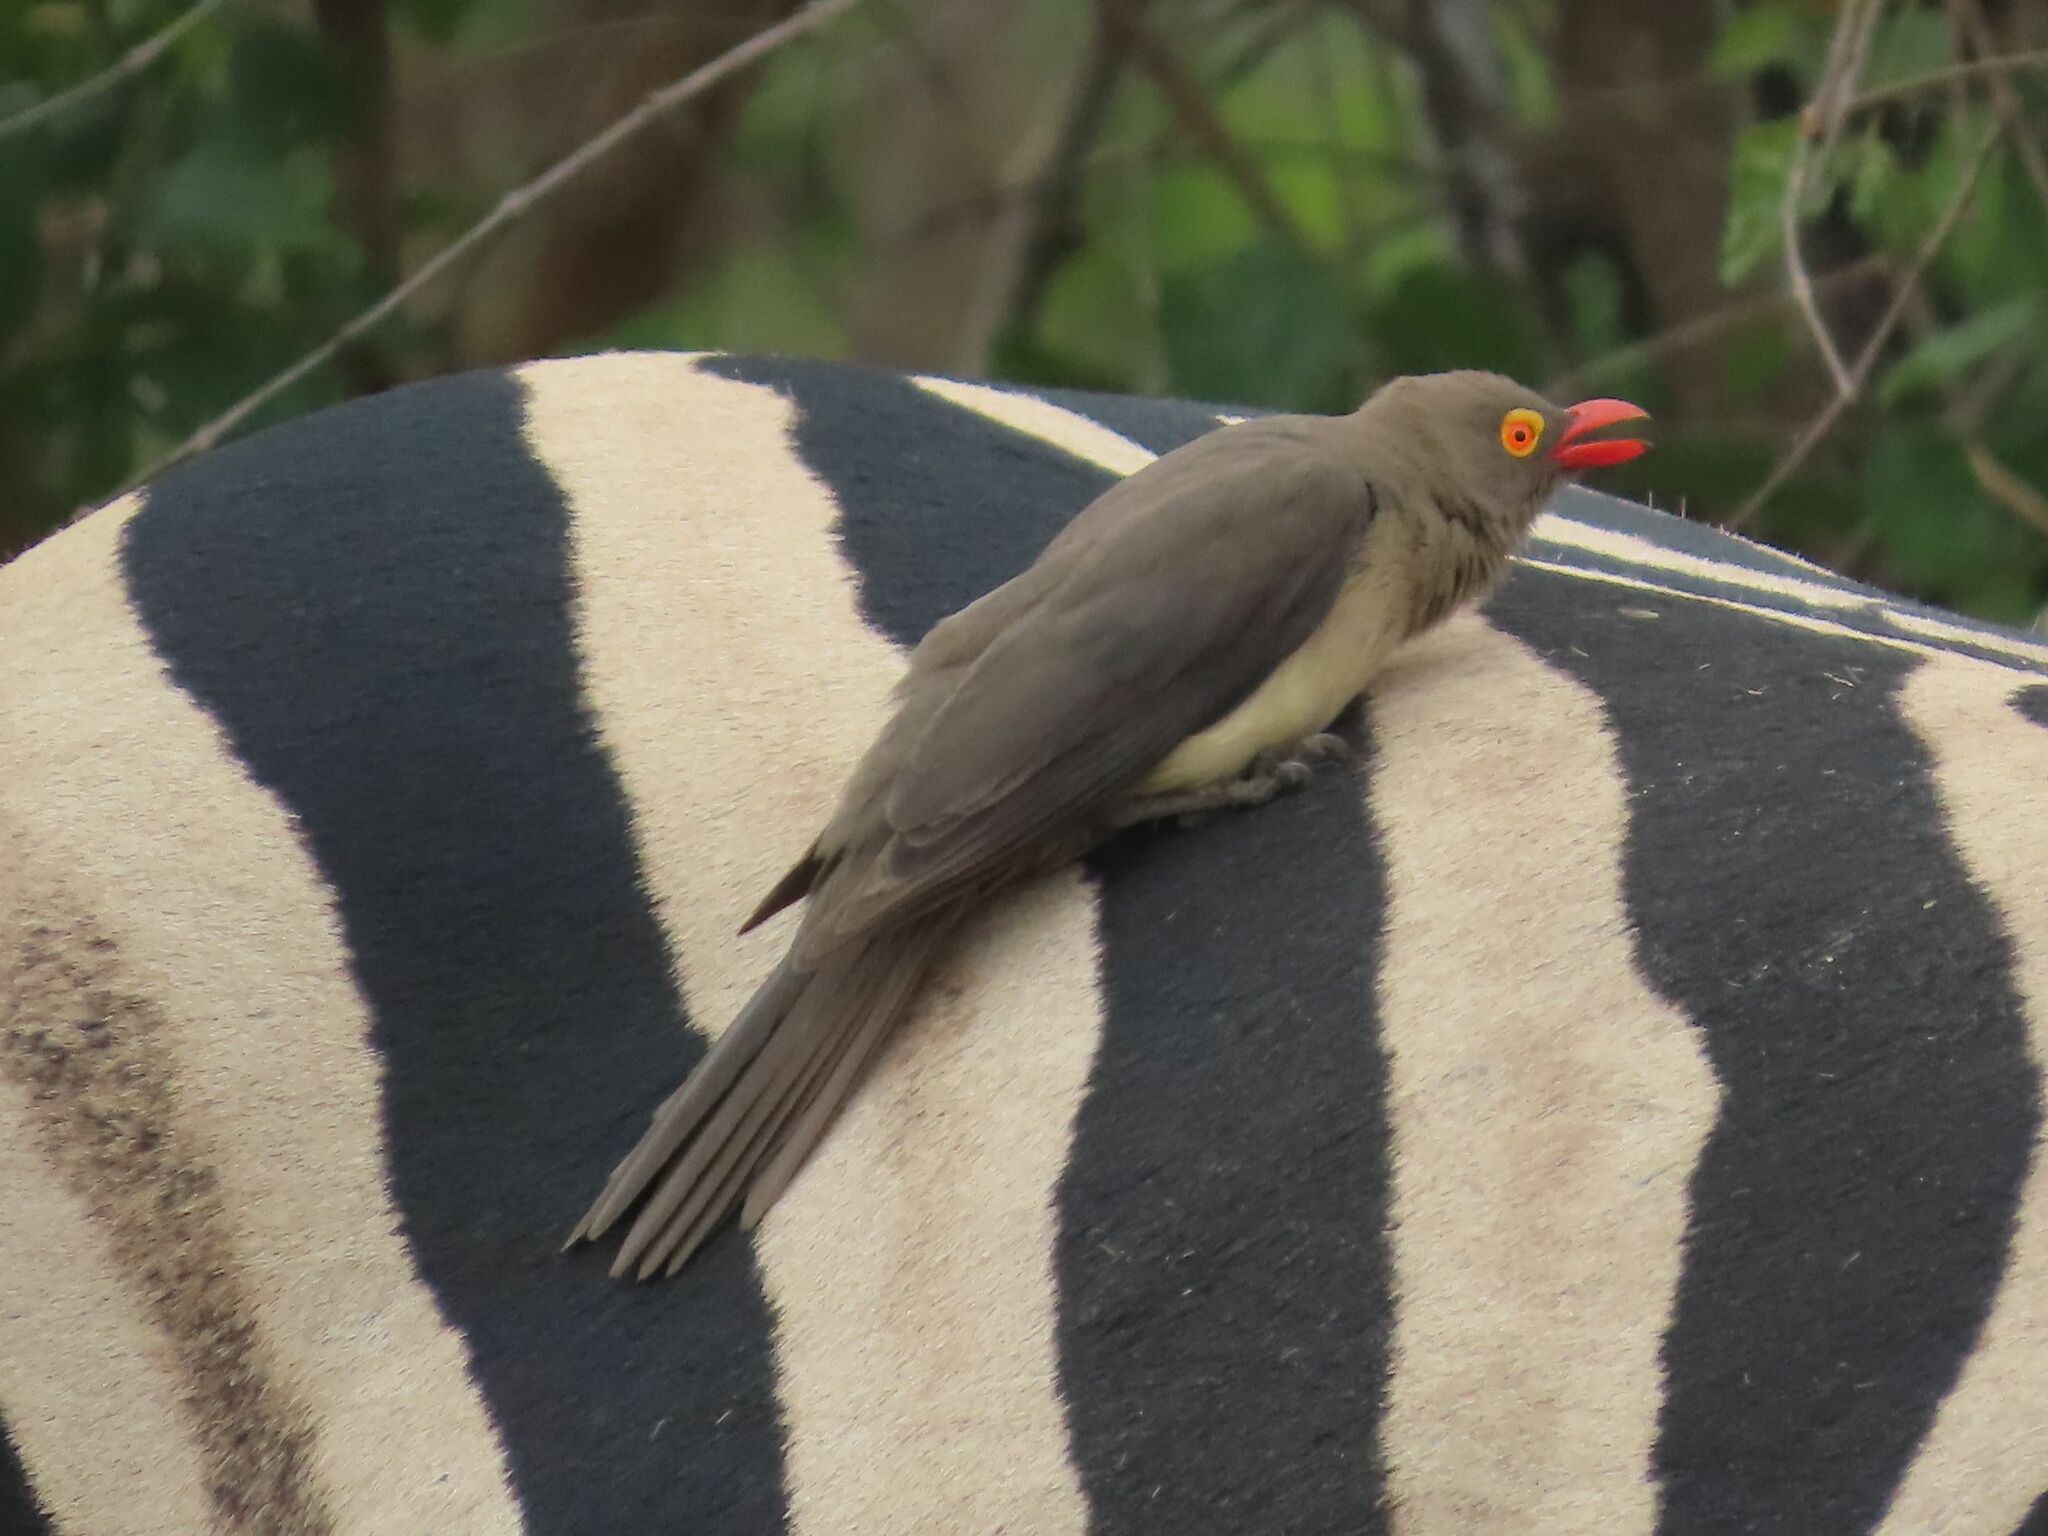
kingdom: Animalia
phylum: Chordata
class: Aves
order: Passeriformes
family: Buphagidae
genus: Buphagus
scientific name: Buphagus erythrorhynchus
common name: Red-billed oxpecker
